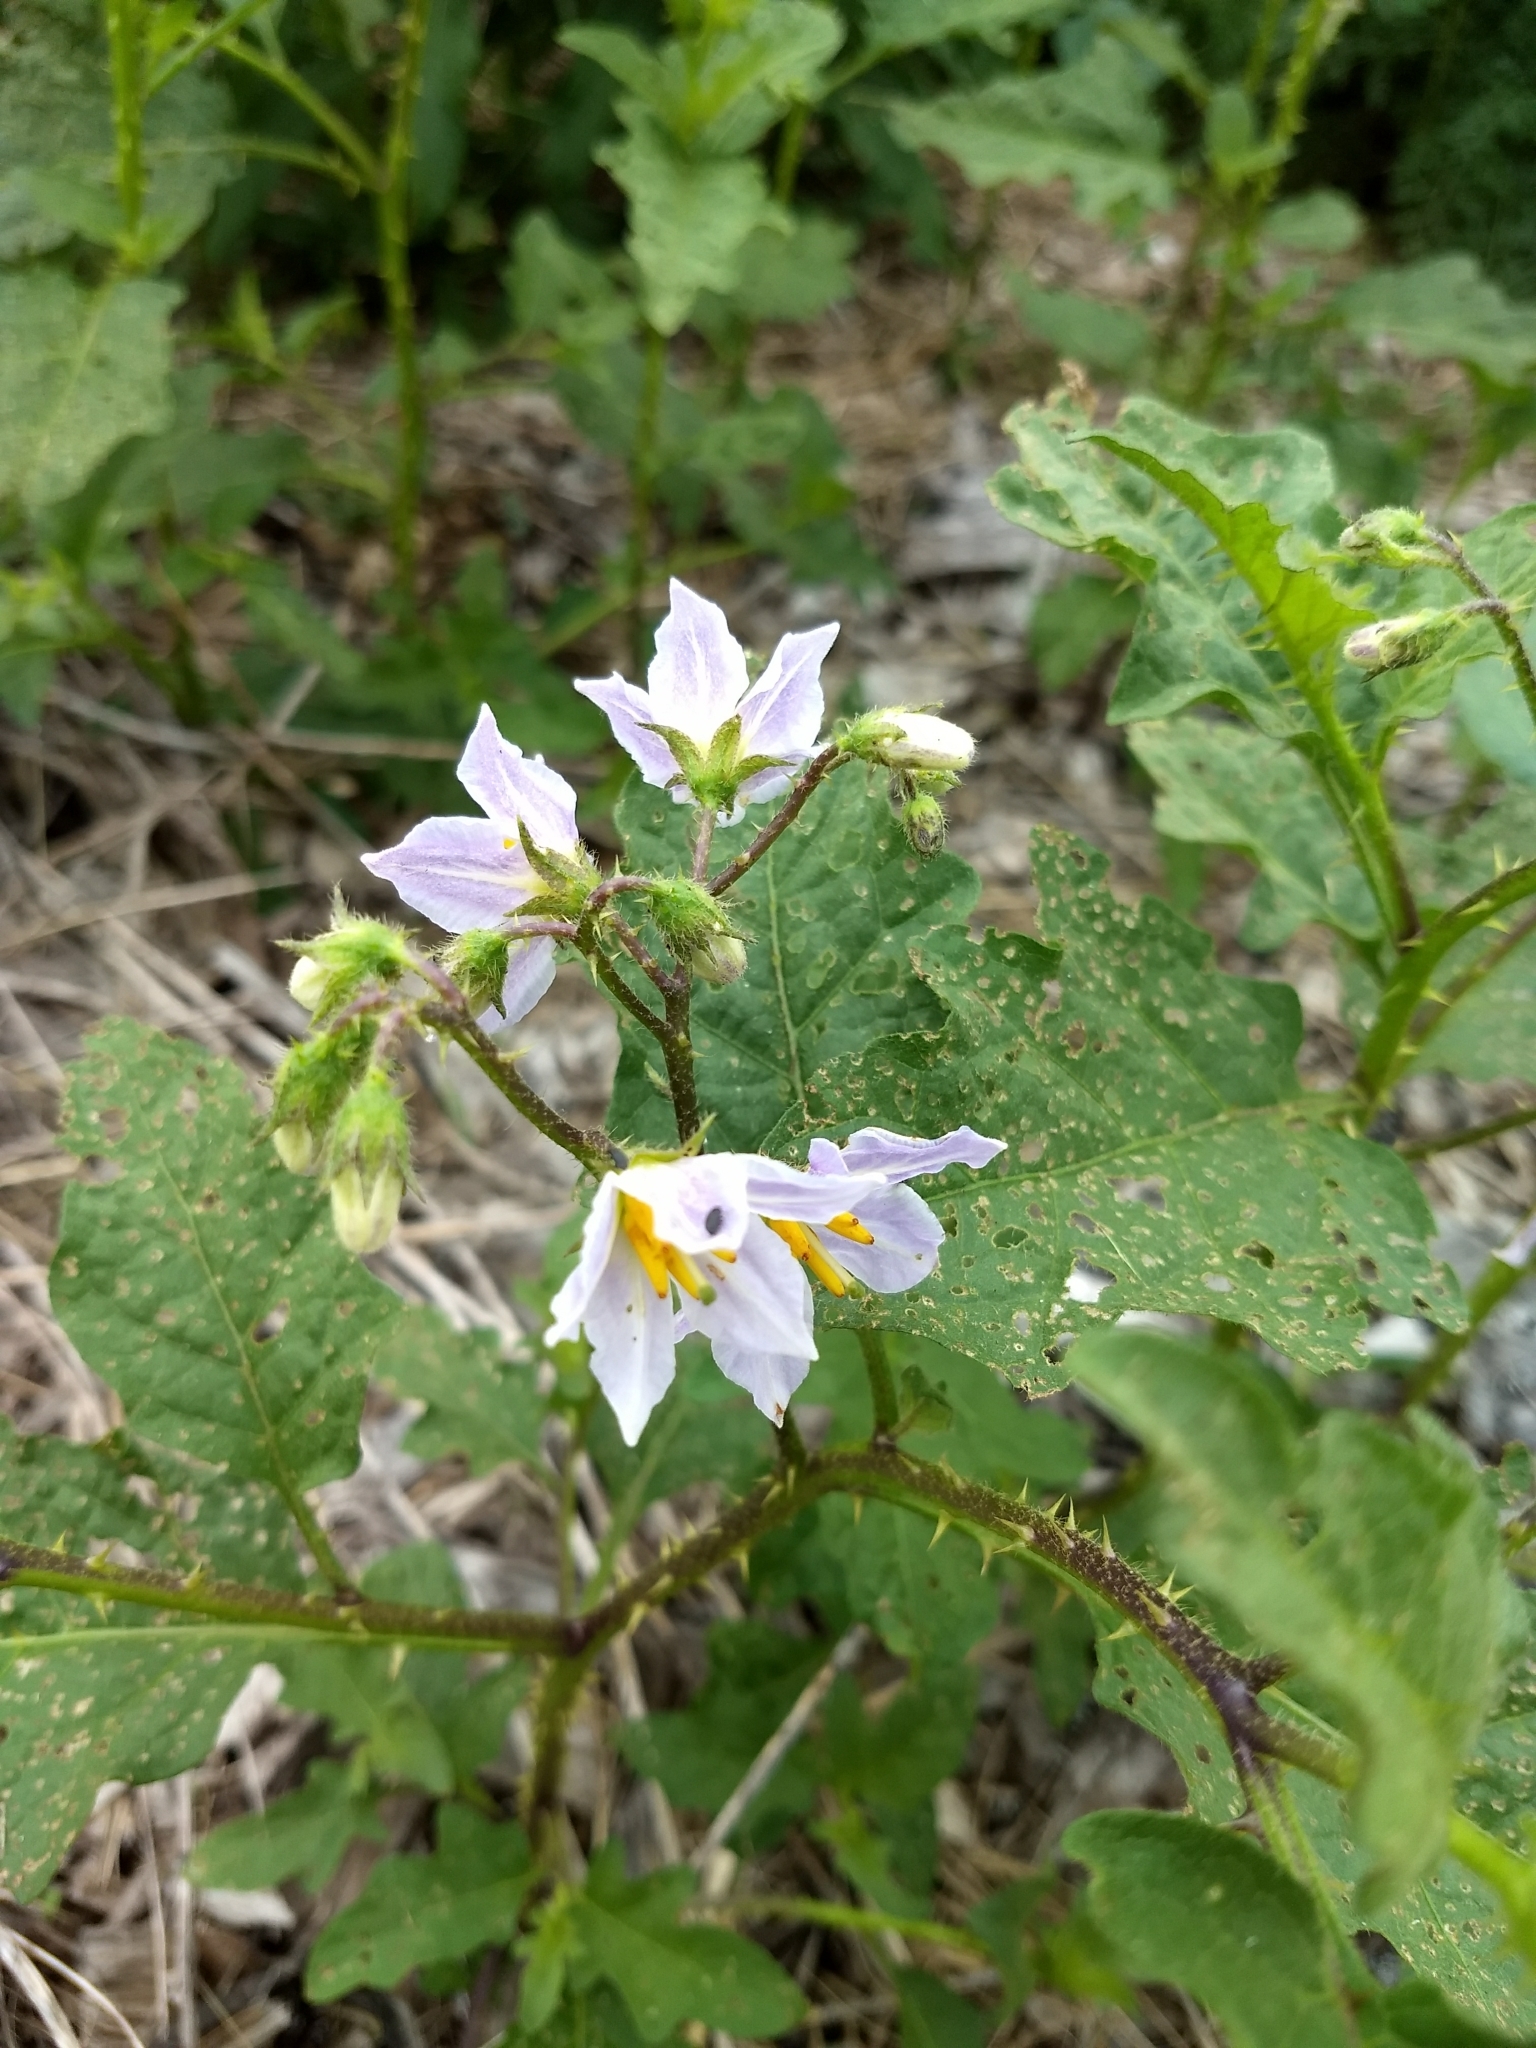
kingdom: Plantae
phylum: Tracheophyta
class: Magnoliopsida
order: Solanales
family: Solanaceae
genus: Solanum
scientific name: Solanum carolinense
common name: Horse-nettle
